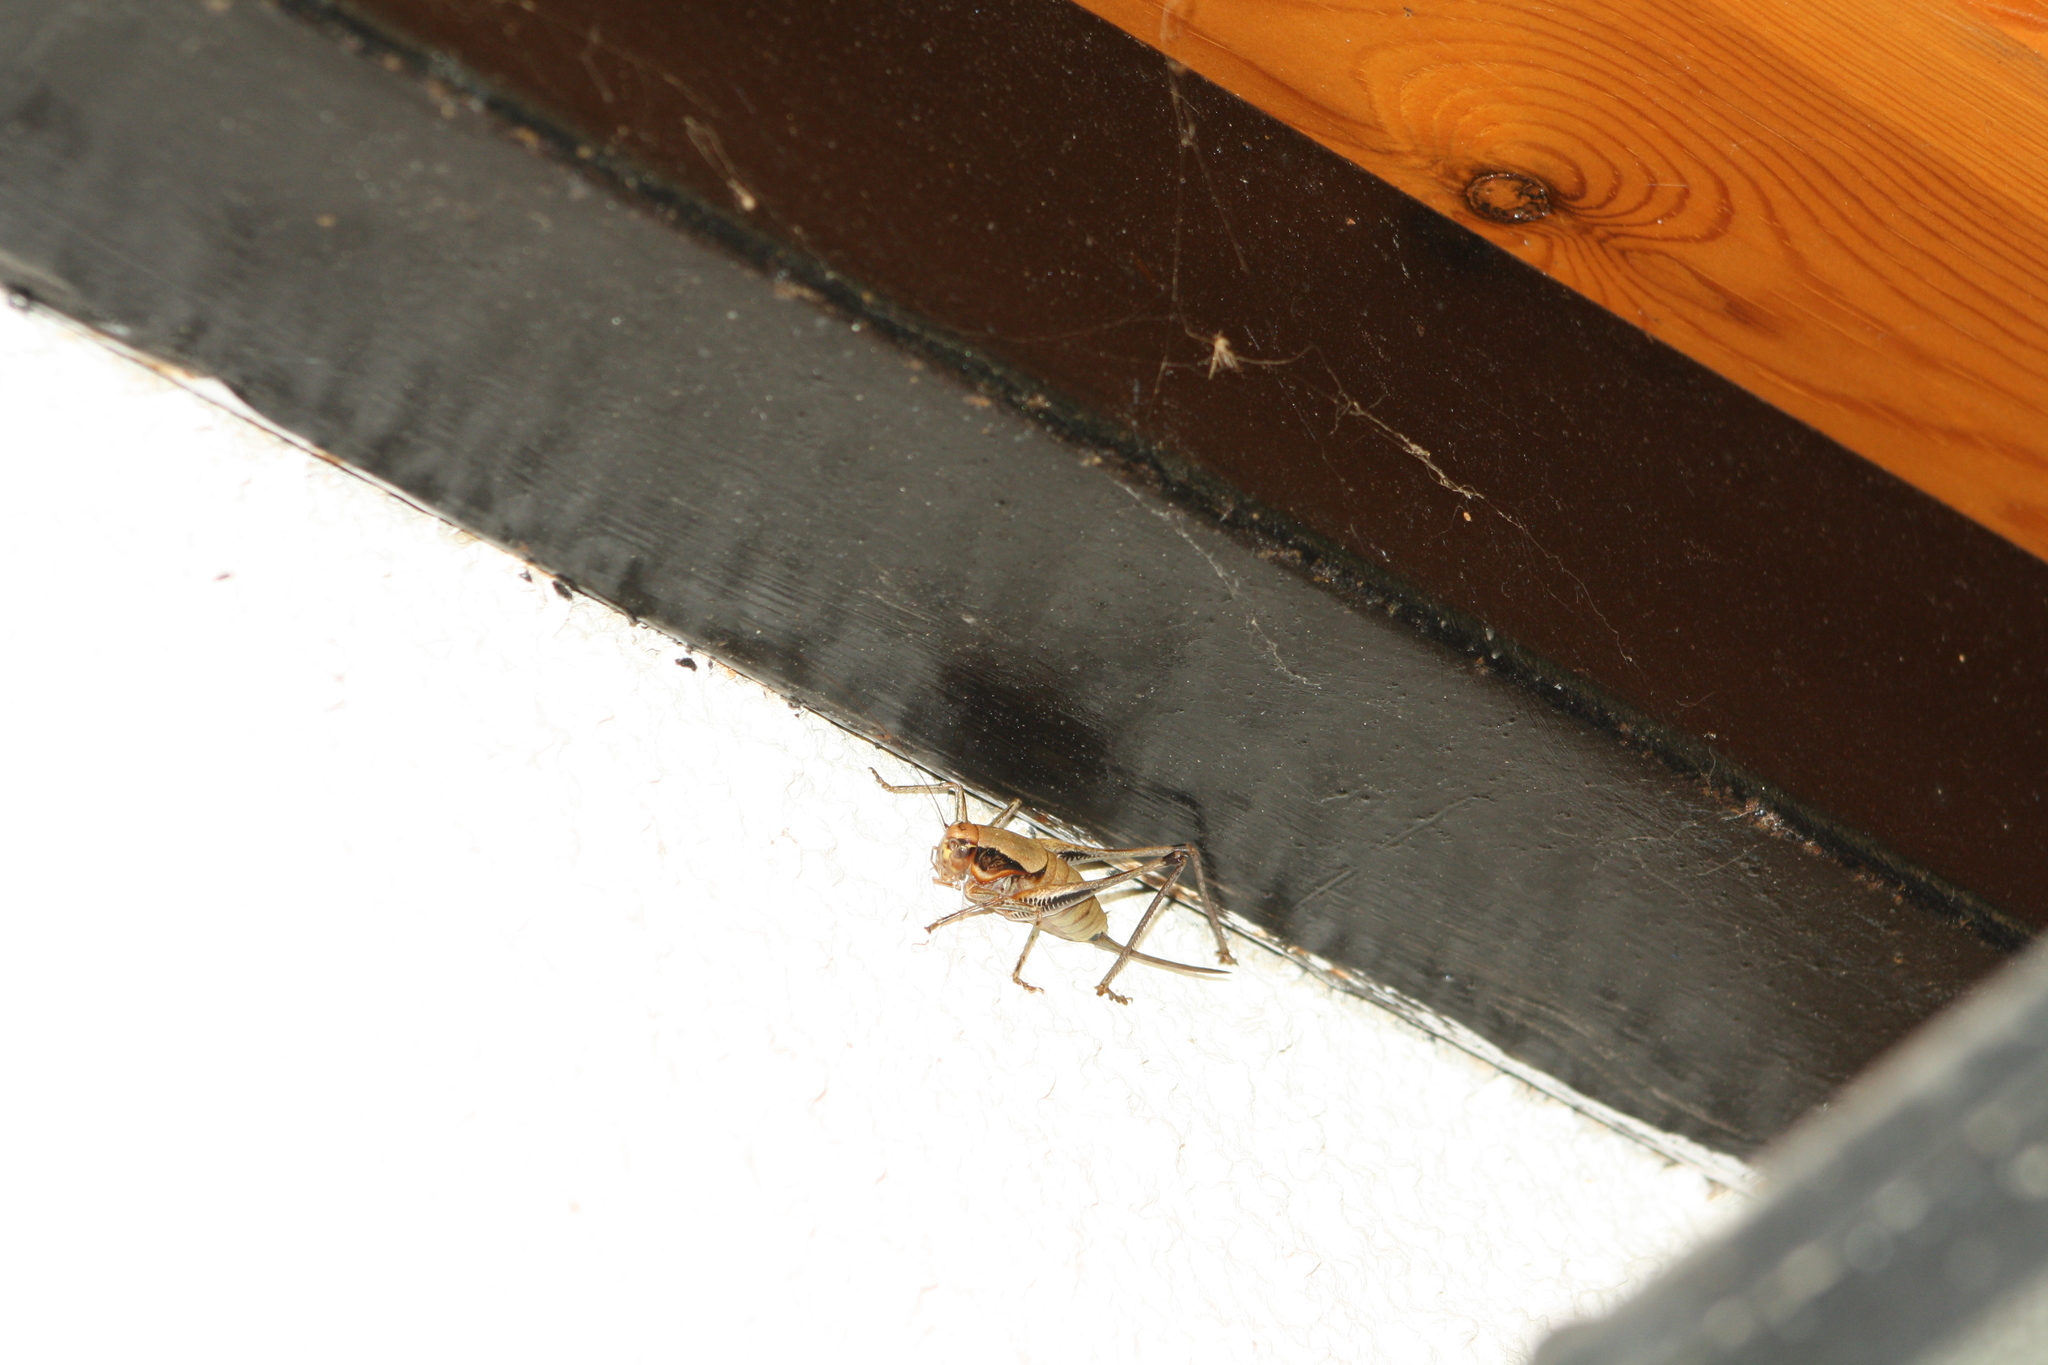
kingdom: Animalia
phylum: Arthropoda
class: Insecta
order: Orthoptera
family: Tettigoniidae
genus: Eupholidoptera
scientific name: Eupholidoptera megastyla
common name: Greek marbled bush-cricket
